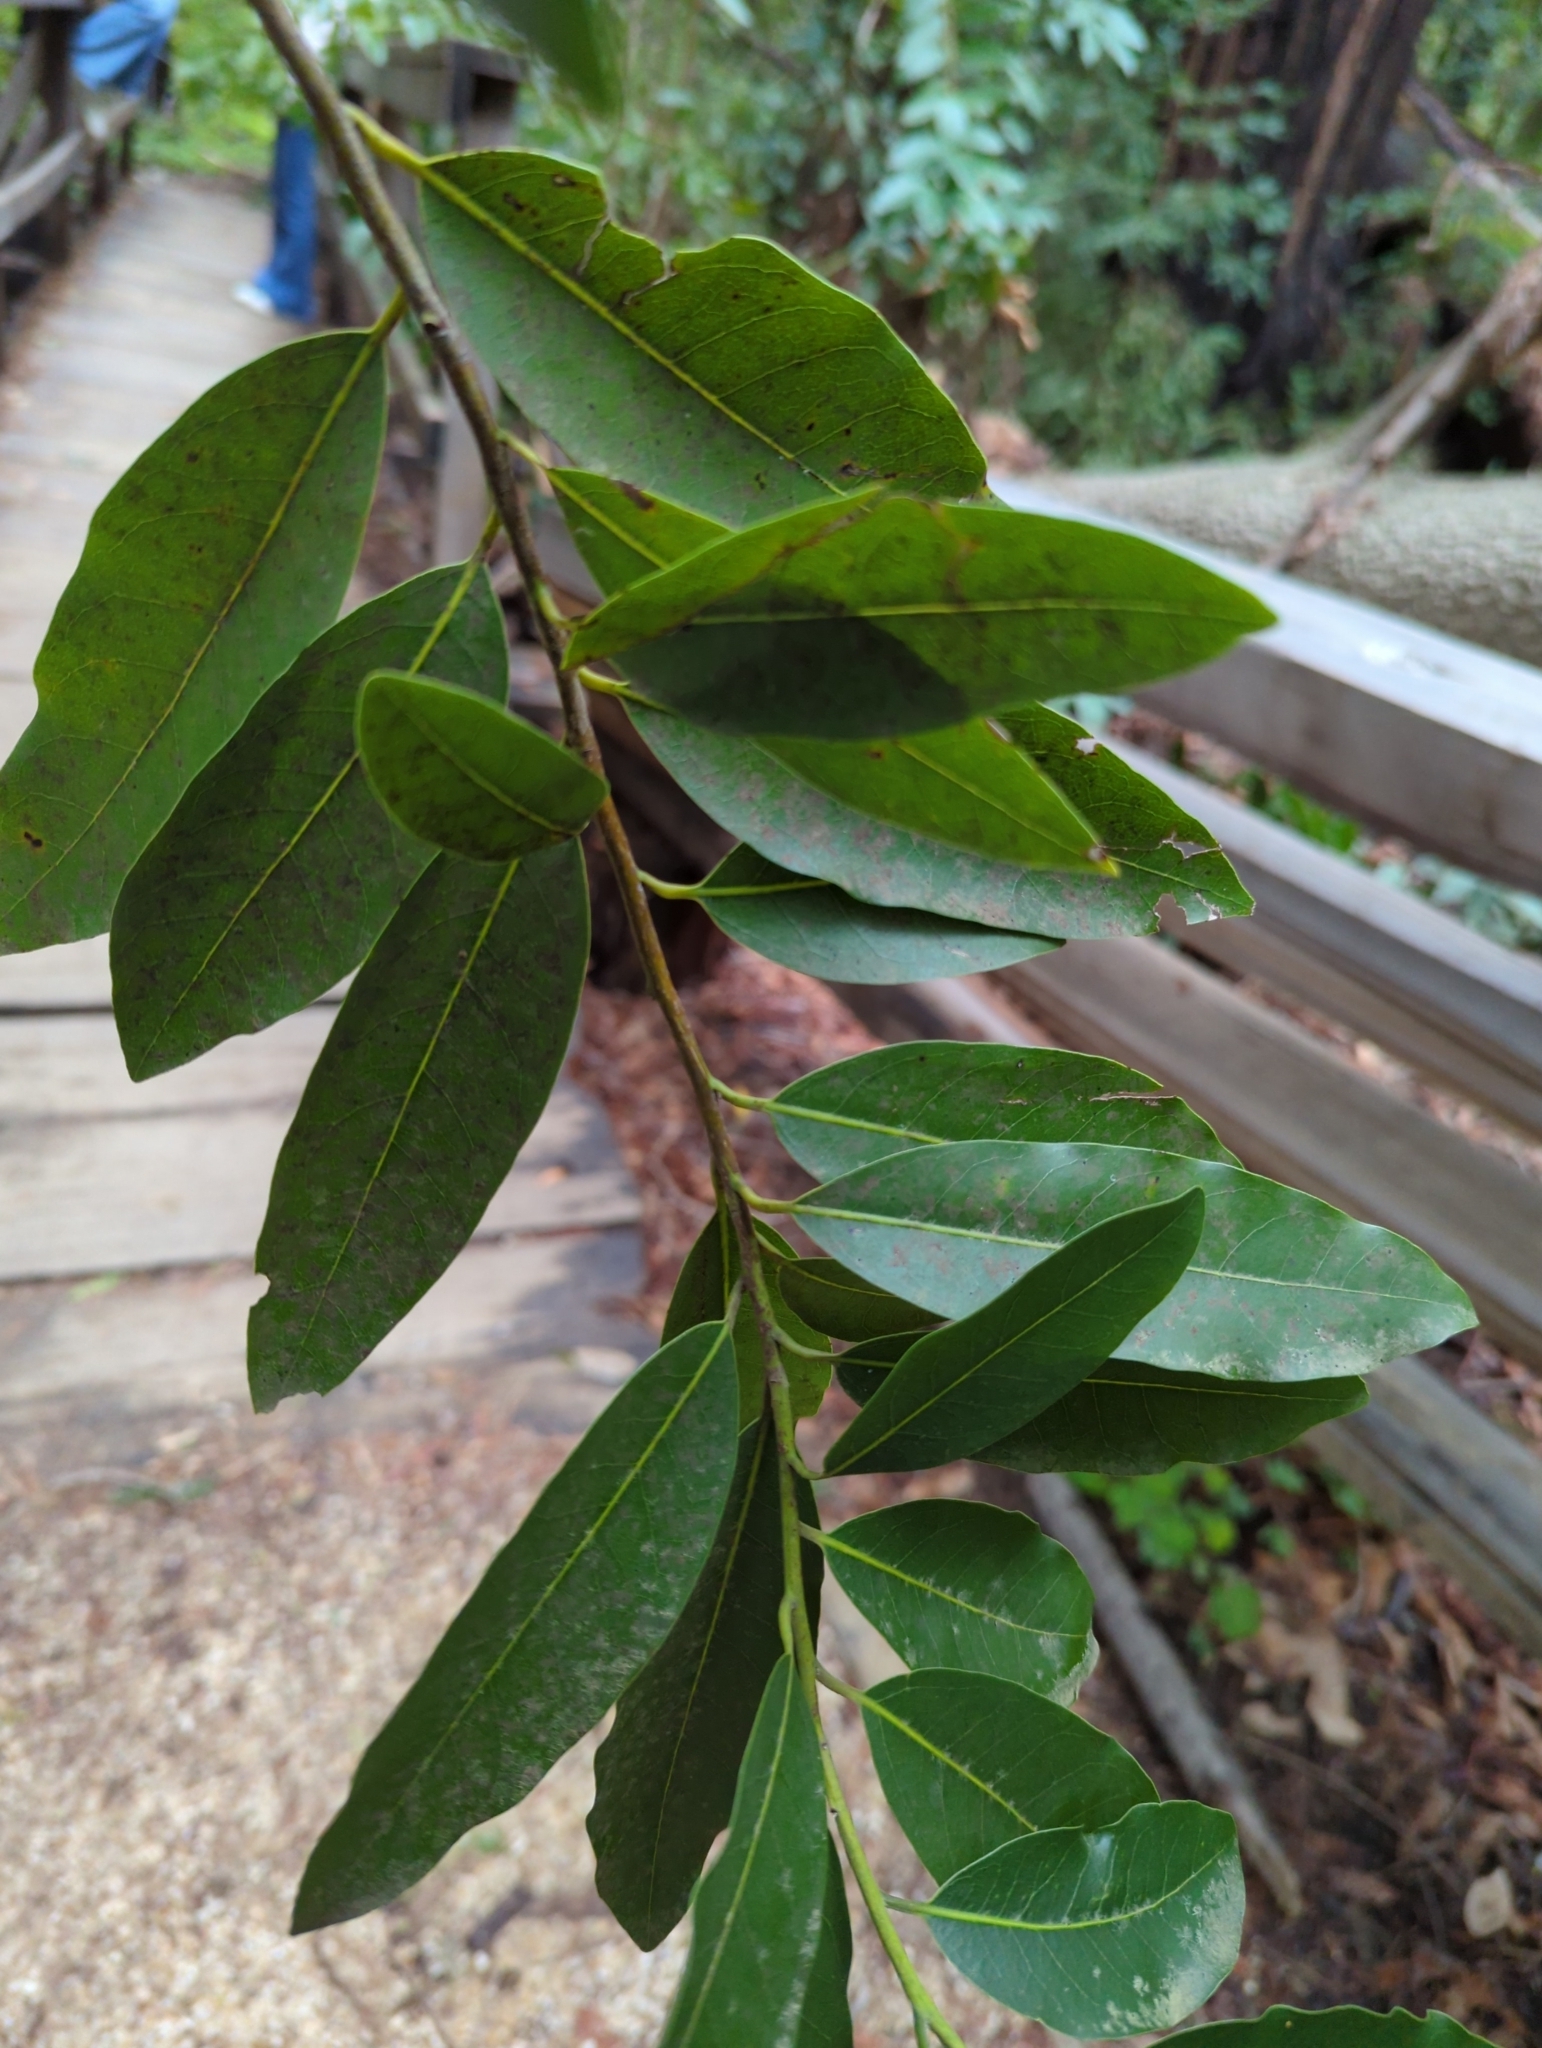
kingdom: Plantae
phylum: Tracheophyta
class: Magnoliopsida
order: Laurales
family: Lauraceae
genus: Umbellularia
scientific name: Umbellularia californica
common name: California bay
